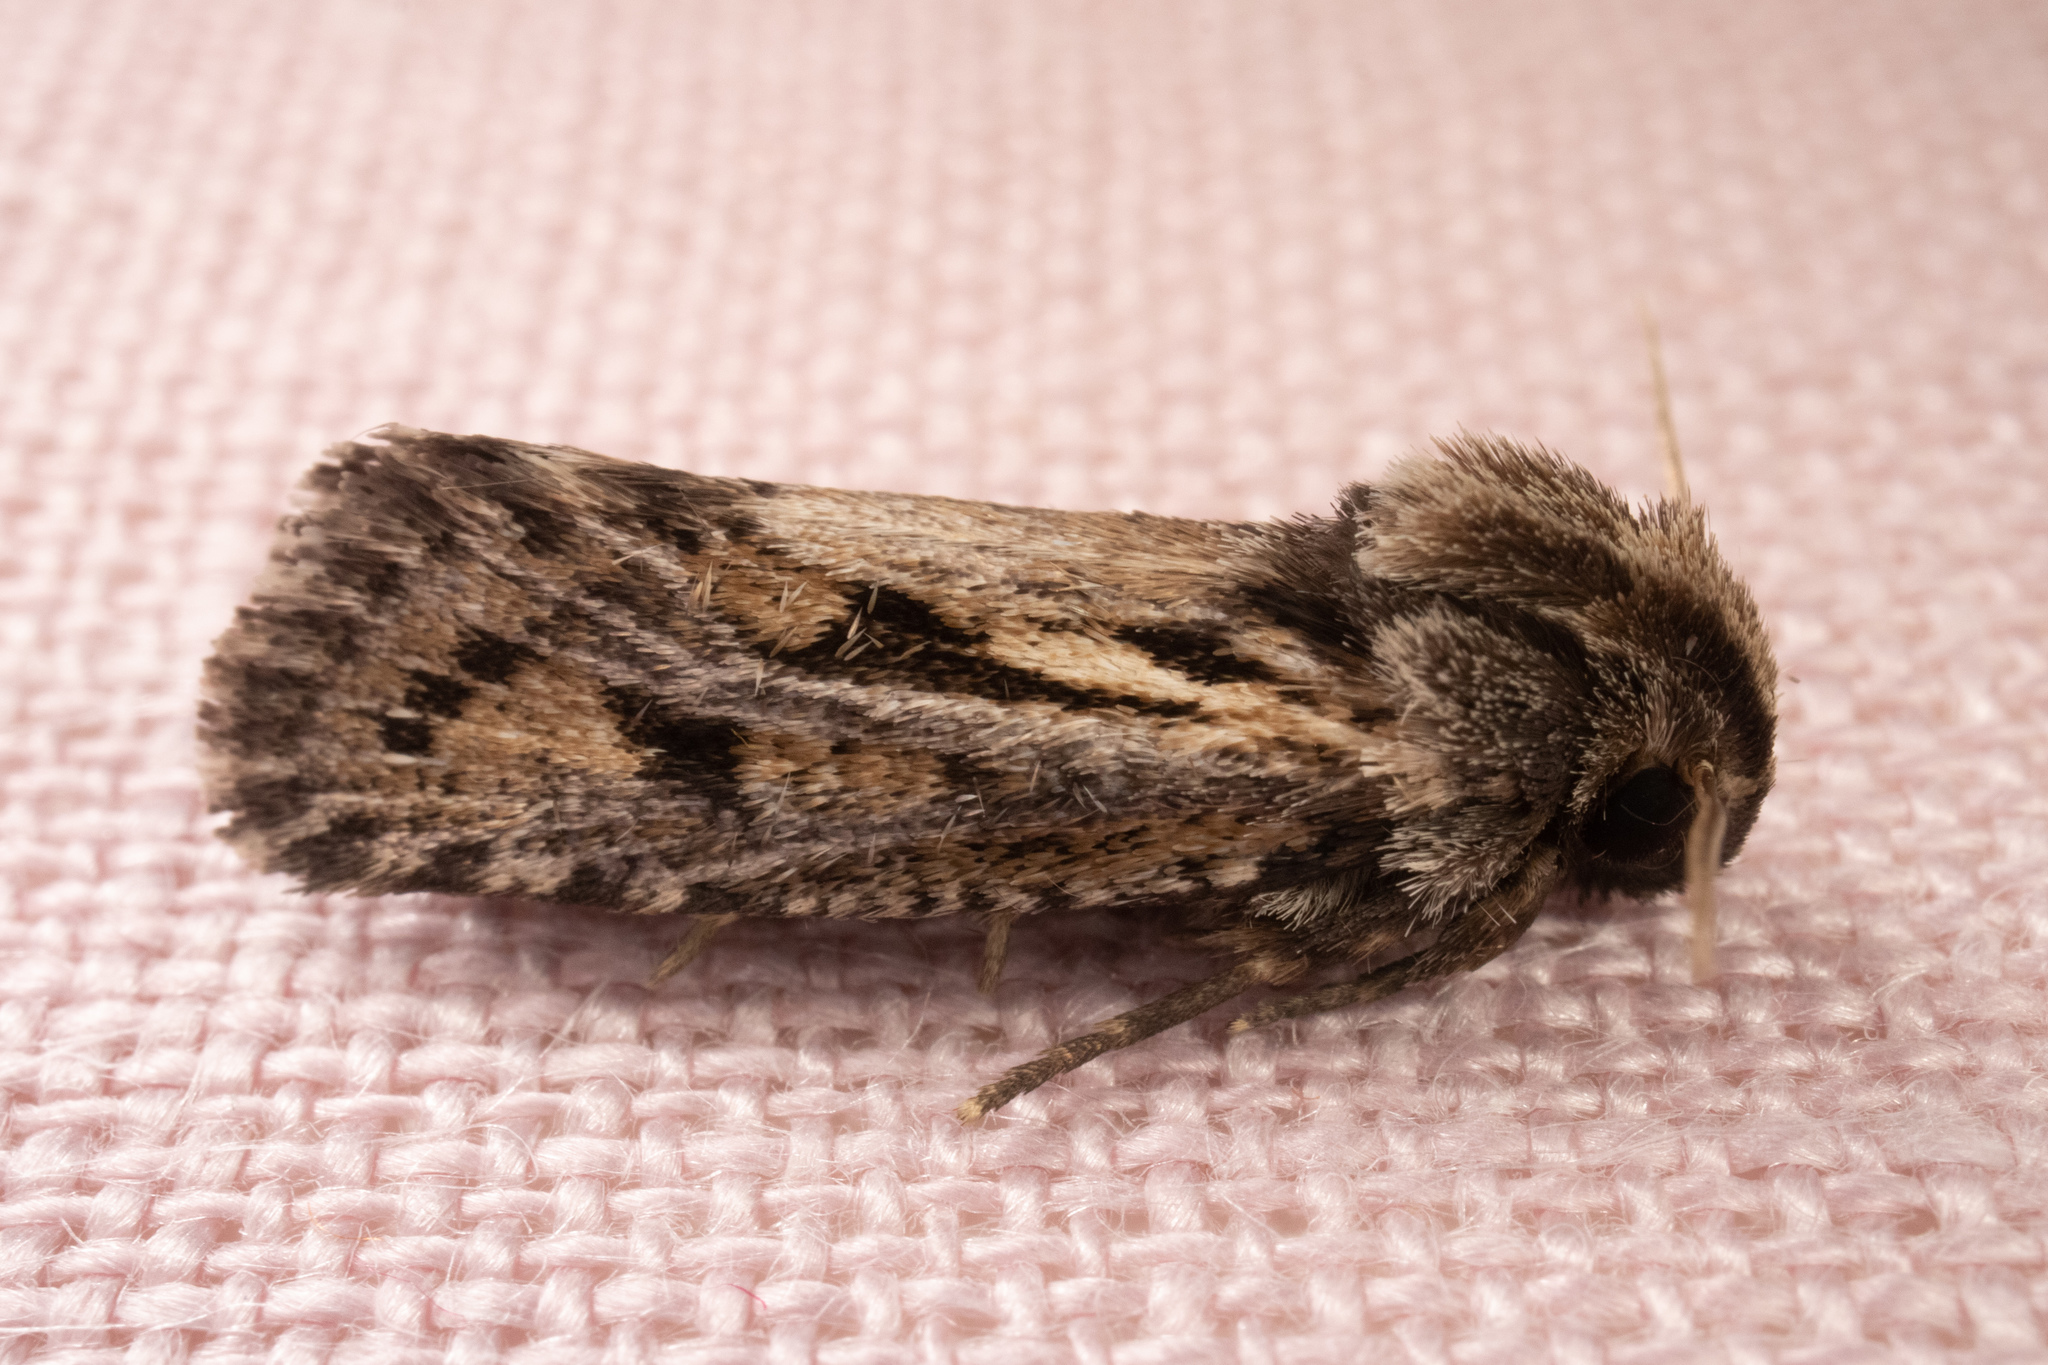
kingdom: Animalia
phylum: Arthropoda
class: Insecta
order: Lepidoptera
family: Tineidae
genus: Acrolophus
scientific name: Acrolophus popeanella
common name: Clemens' grass tubeworm moth
